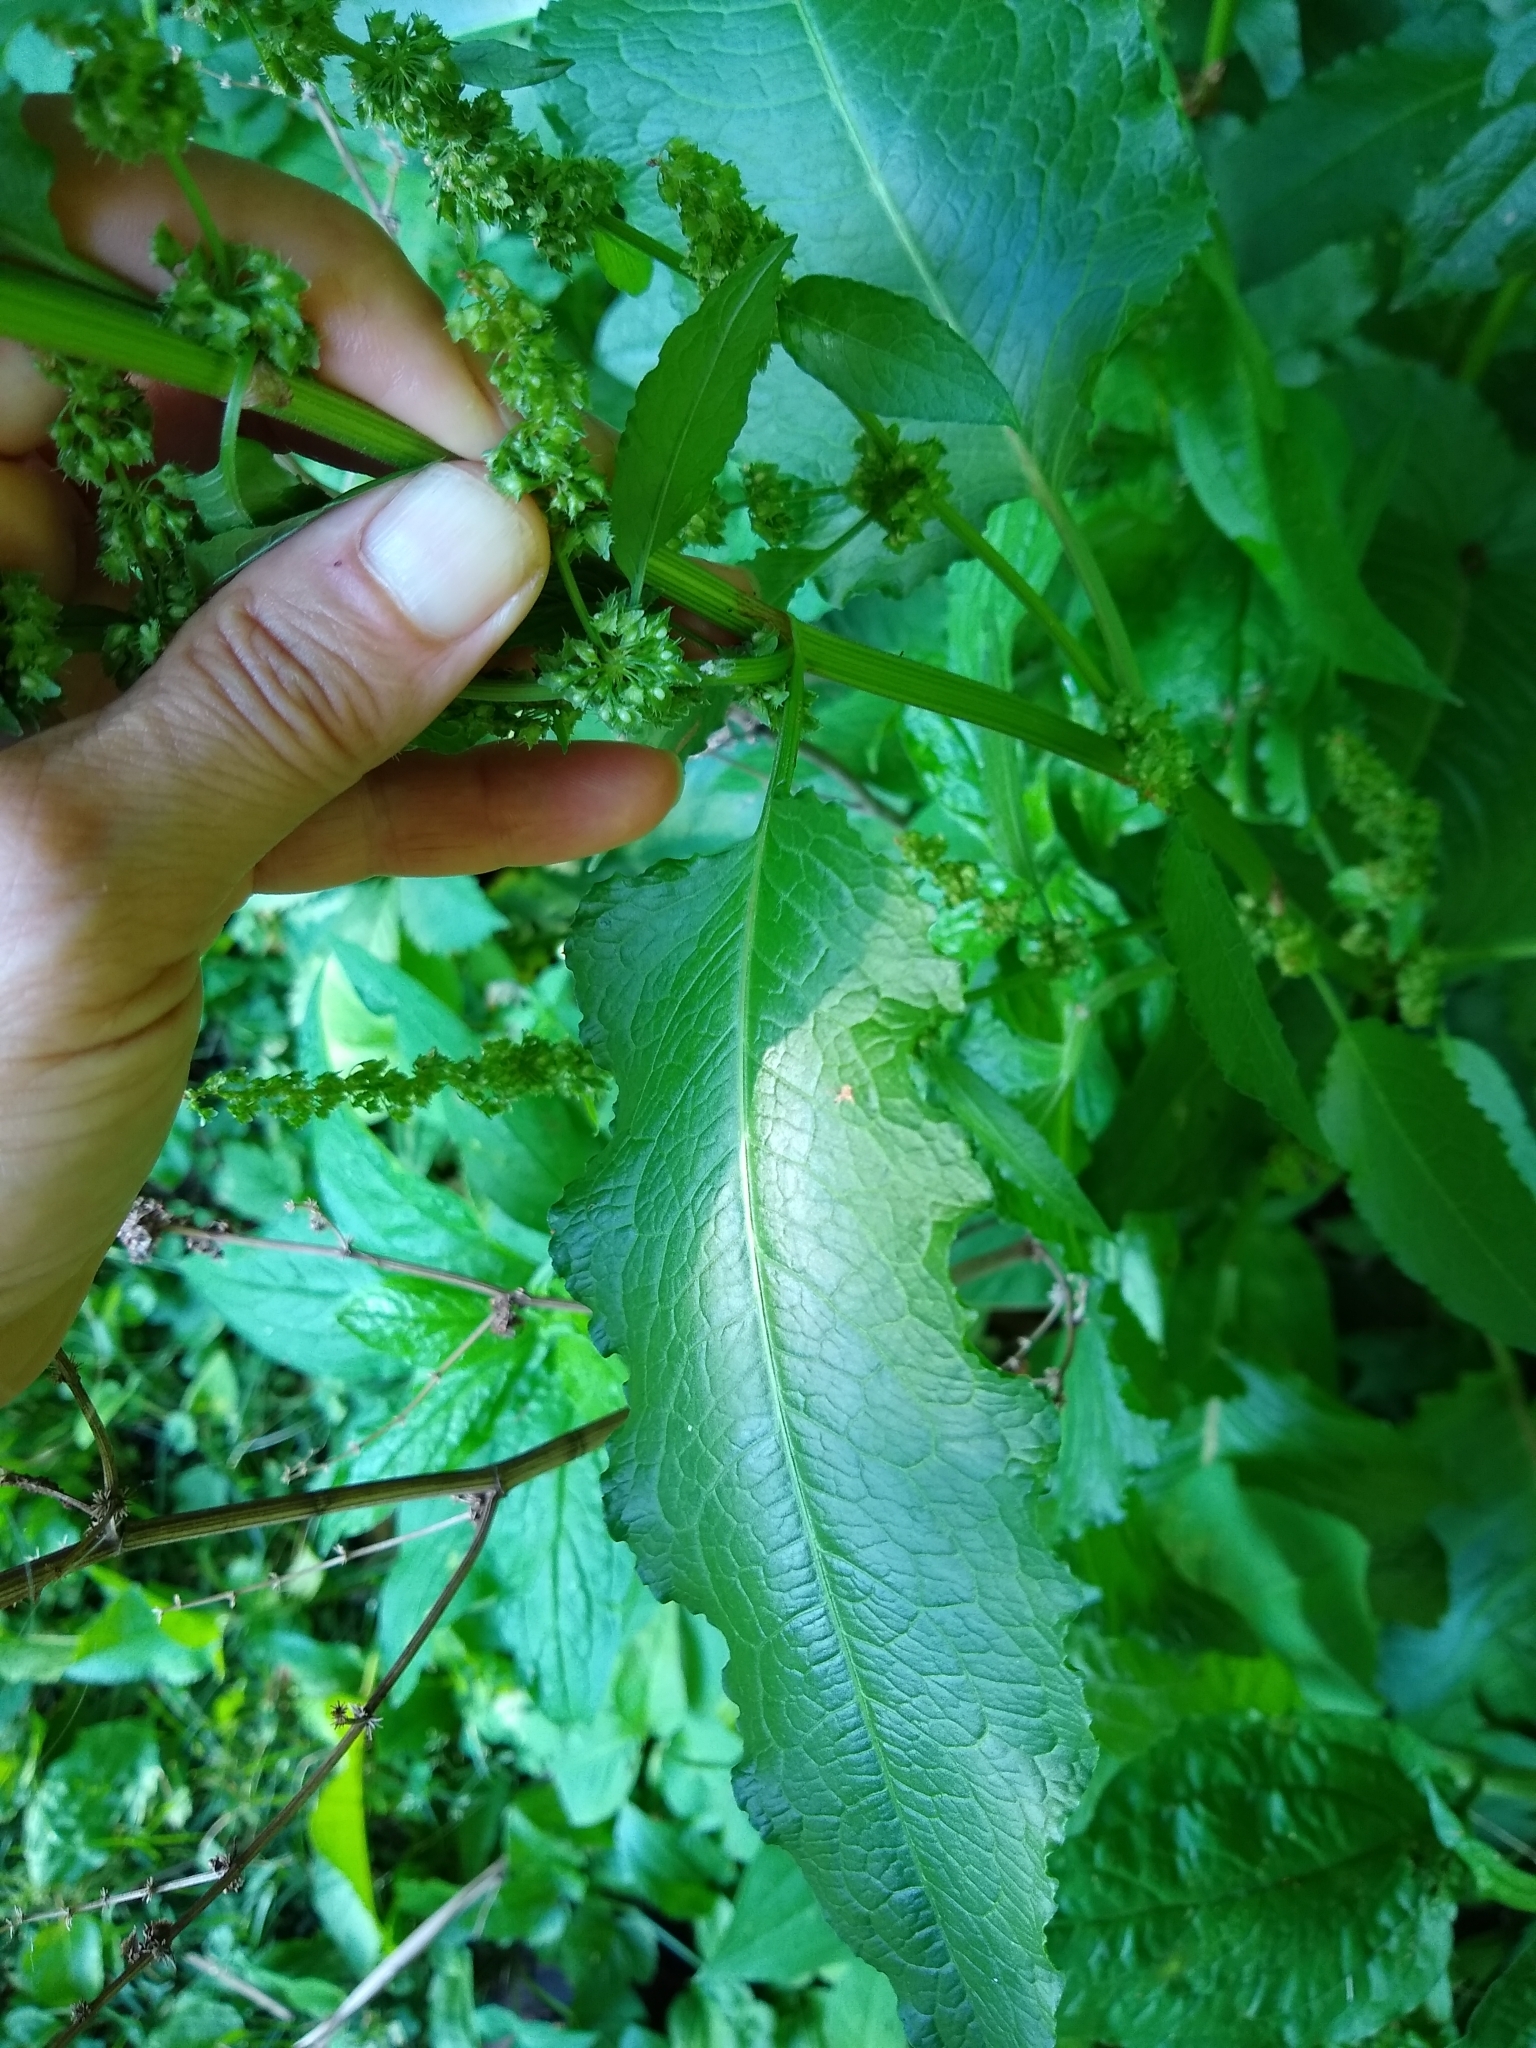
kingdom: Plantae
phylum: Tracheophyta
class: Magnoliopsida
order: Caryophyllales
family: Polygonaceae
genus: Rumex
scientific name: Rumex crispus
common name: Curled dock
